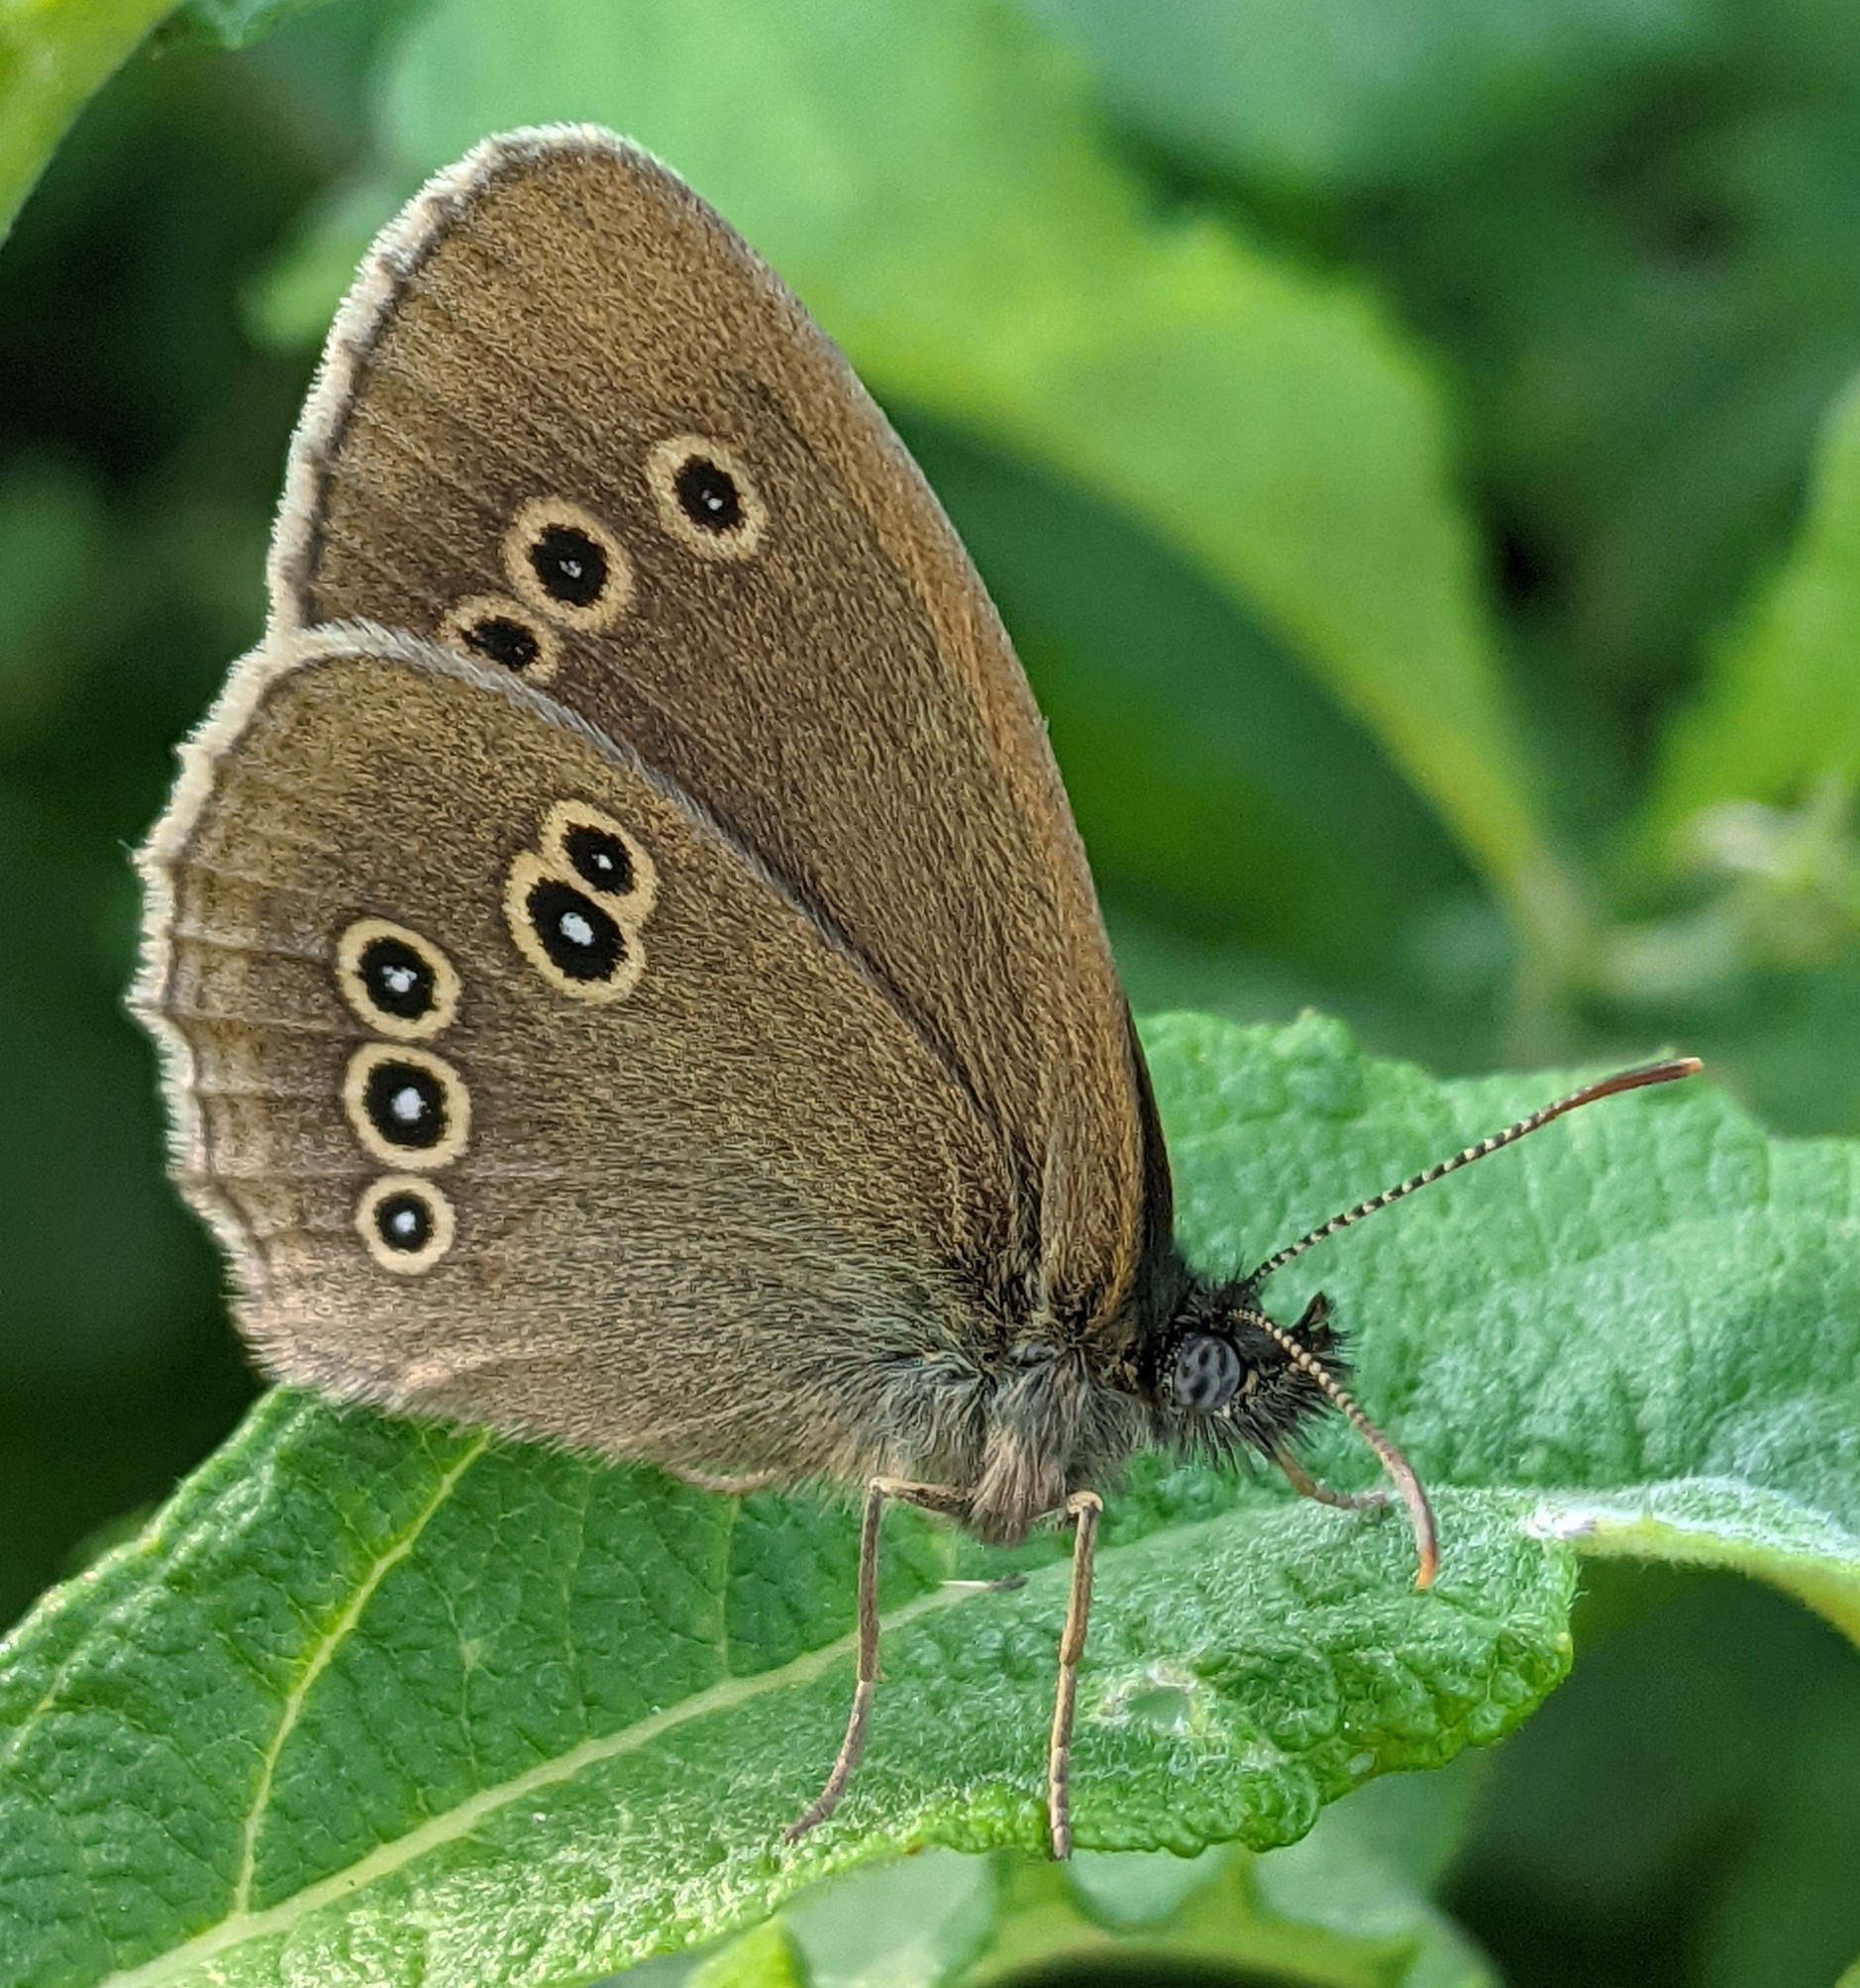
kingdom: Animalia
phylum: Arthropoda
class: Insecta
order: Lepidoptera
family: Nymphalidae
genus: Aphantopus
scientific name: Aphantopus hyperantus
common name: Ringlet
